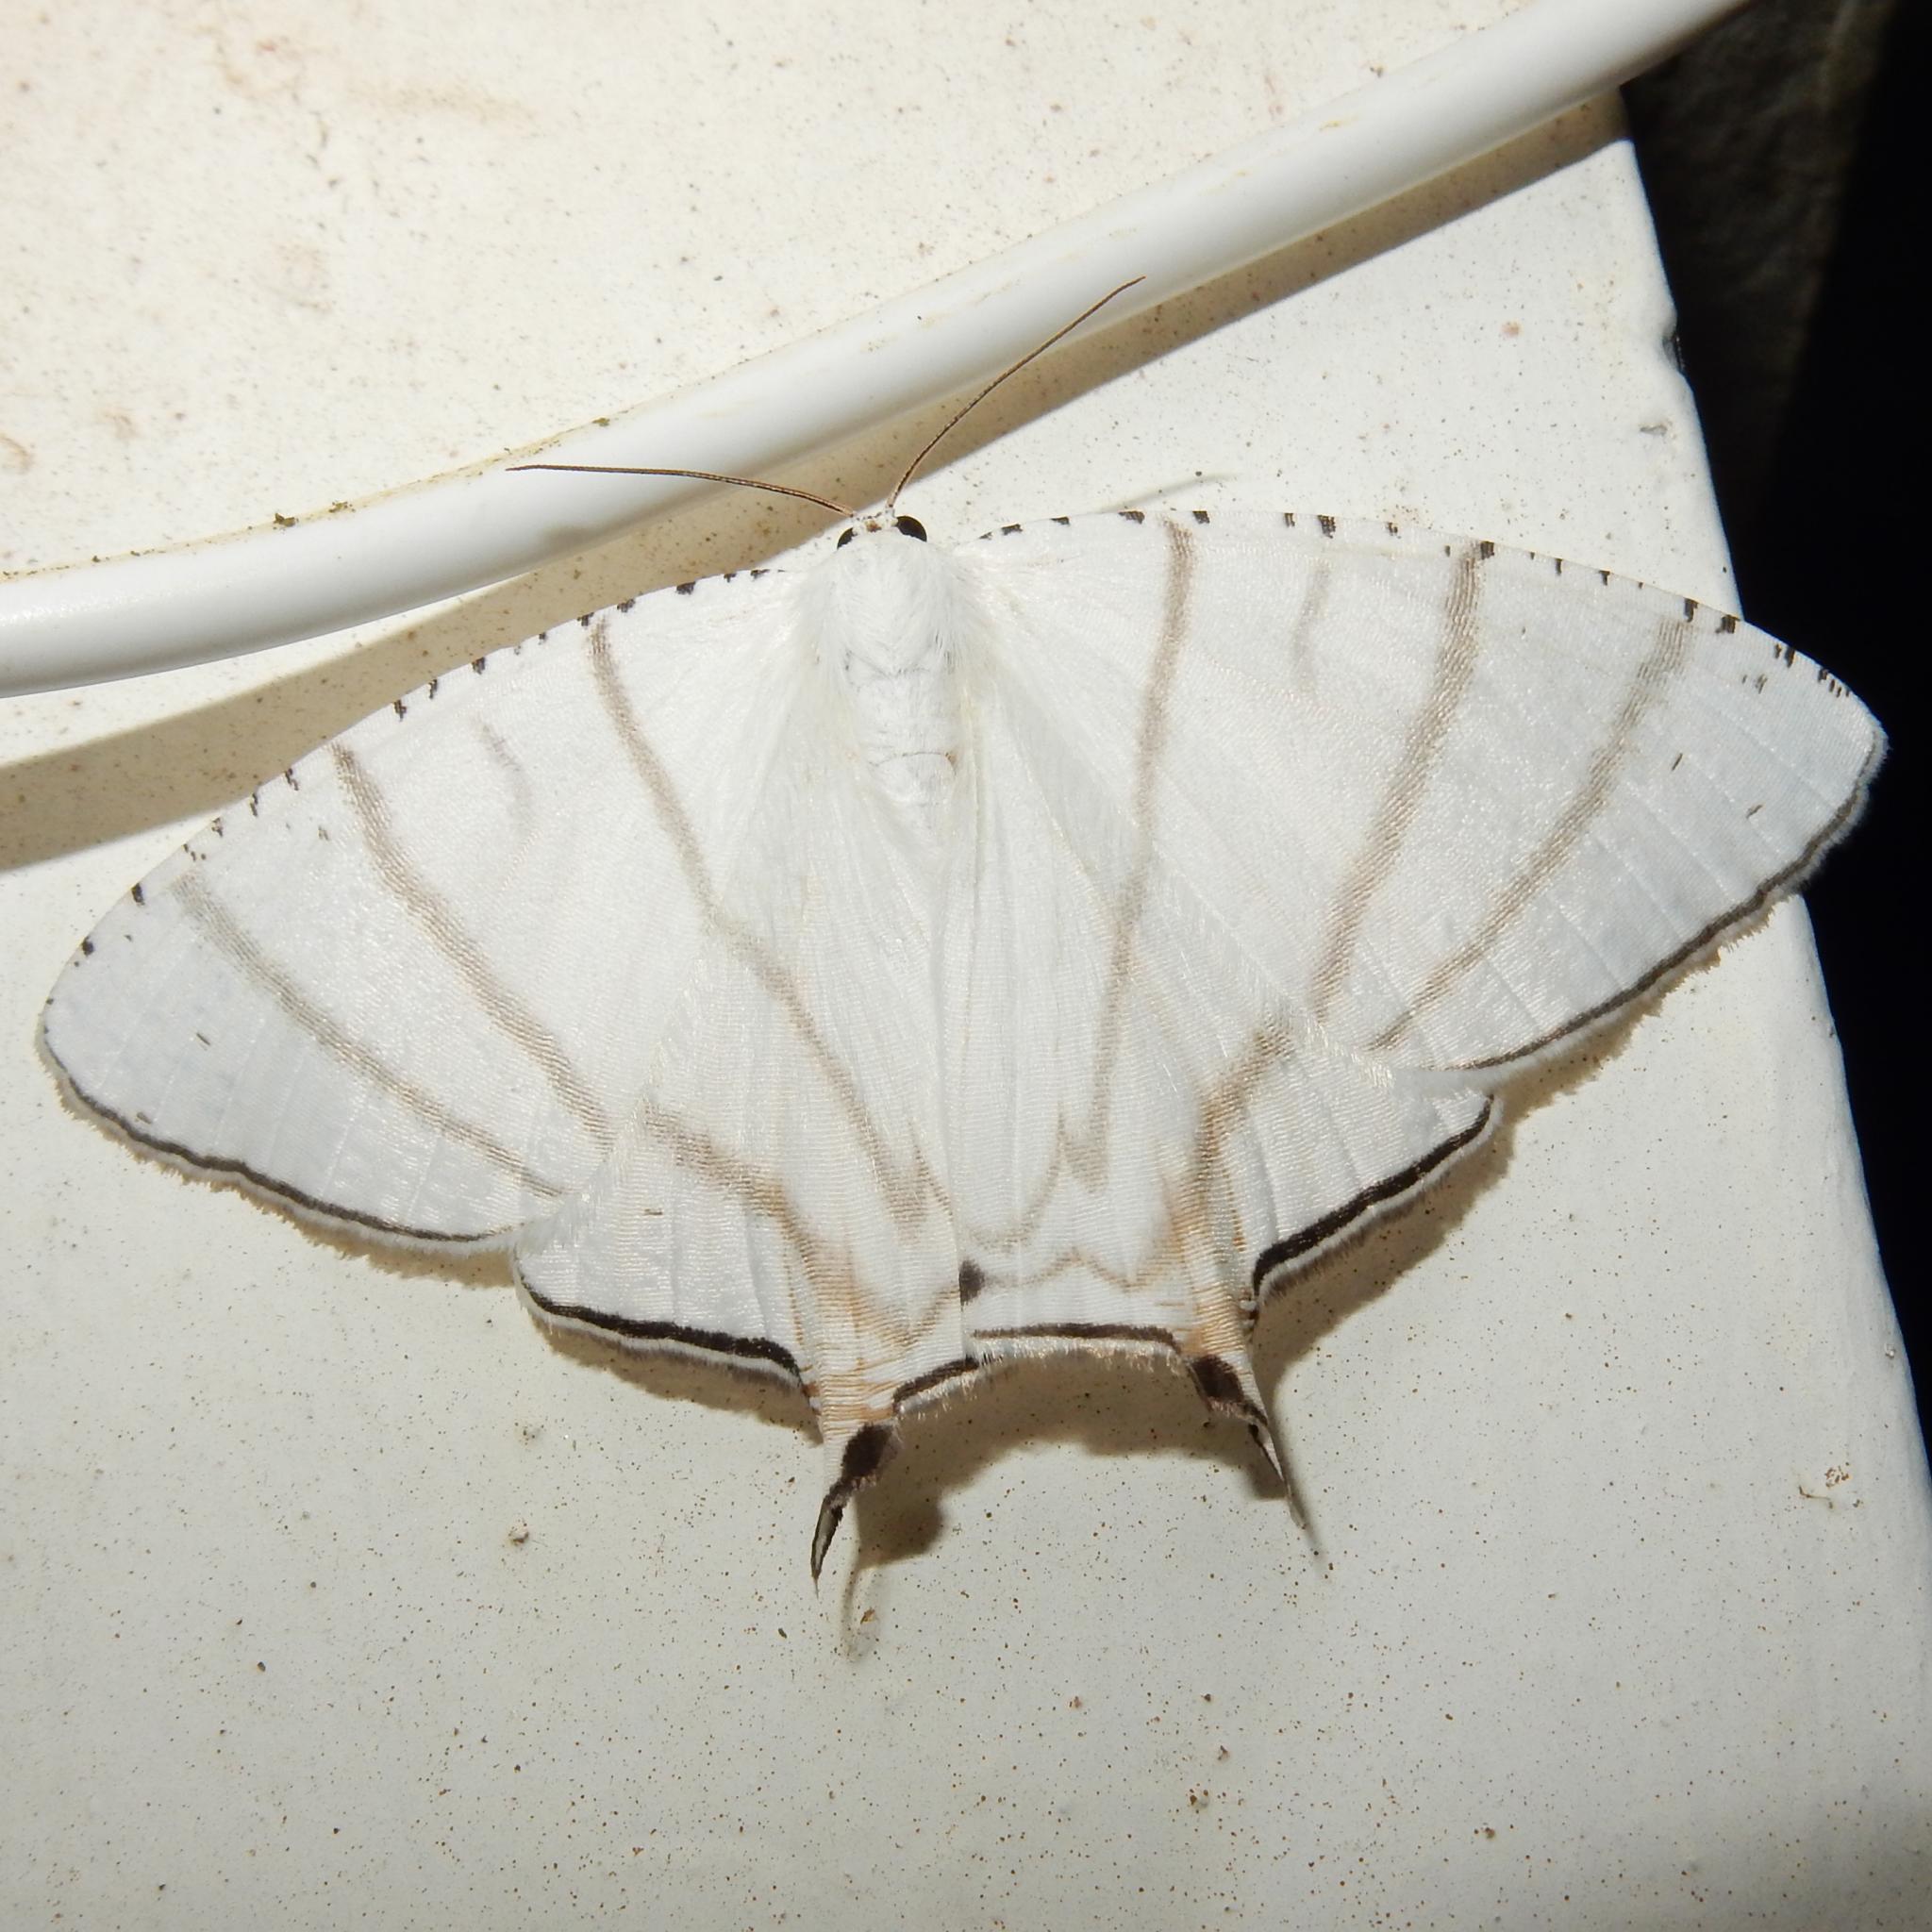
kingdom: Animalia
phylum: Arthropoda
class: Insecta
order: Lepidoptera
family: Uraniidae
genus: Urapteroides
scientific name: Urapteroides recurvata
